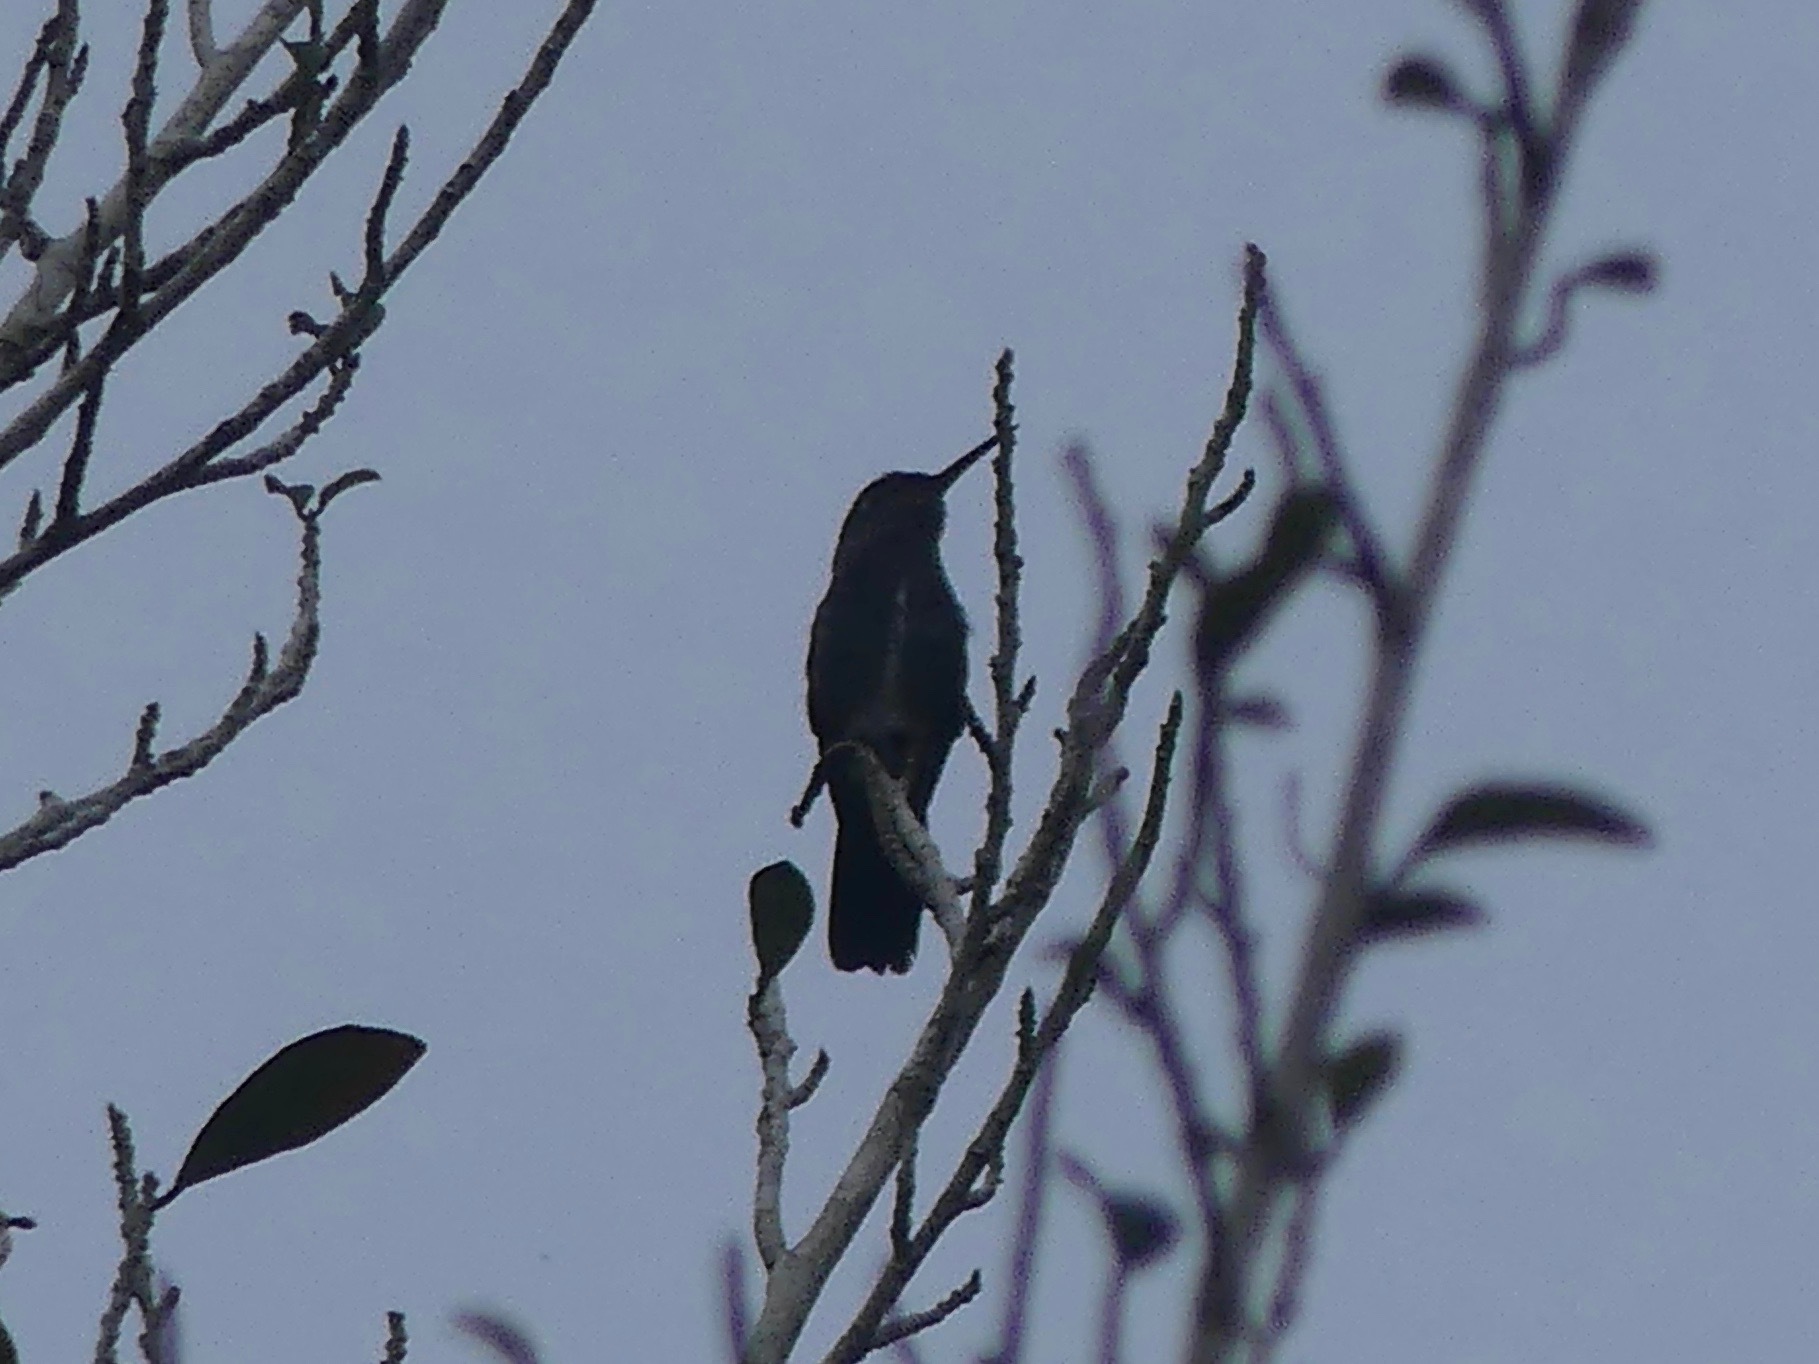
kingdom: Animalia
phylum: Chordata
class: Aves
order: Apodiformes
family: Trochilidae
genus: Chionomesa
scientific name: Chionomesa lactea
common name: Sapphire-spangled emerald
